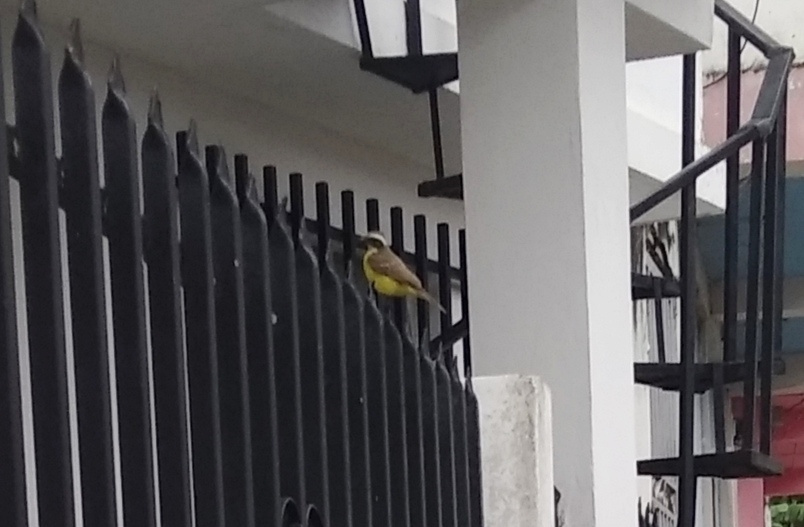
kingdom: Animalia
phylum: Chordata
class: Aves
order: Passeriformes
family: Tyrannidae
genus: Myiozetetes
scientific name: Myiozetetes similis
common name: Social flycatcher
